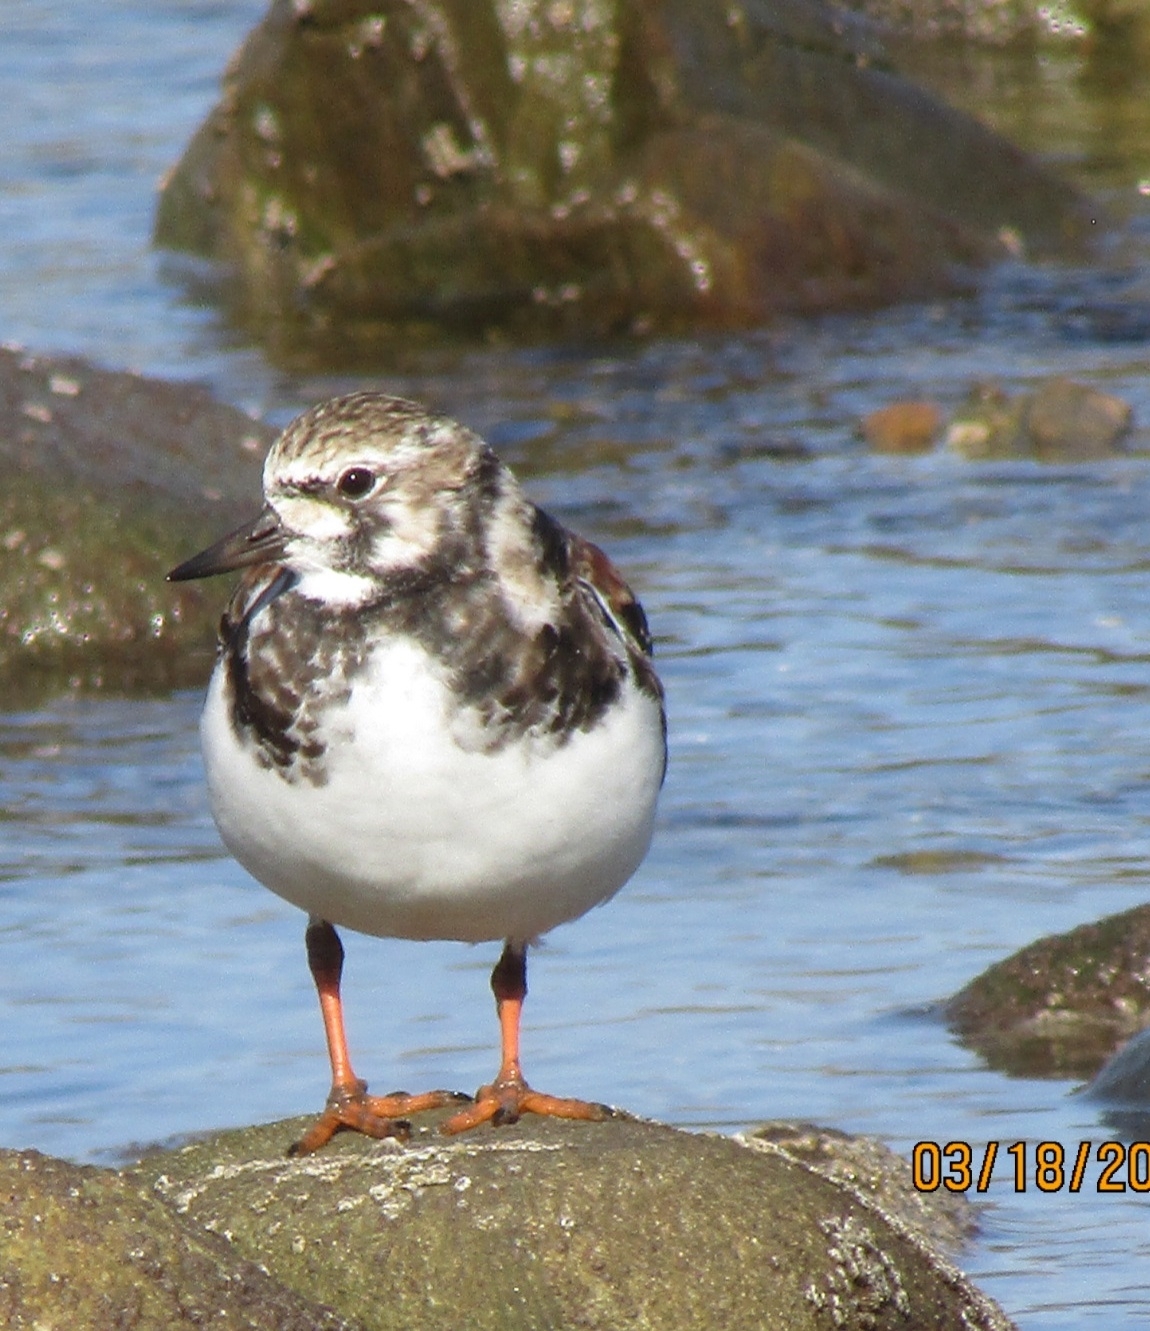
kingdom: Animalia
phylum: Chordata
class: Aves
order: Charadriiformes
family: Scolopacidae
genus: Arenaria
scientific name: Arenaria interpres
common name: Ruddy turnstone
